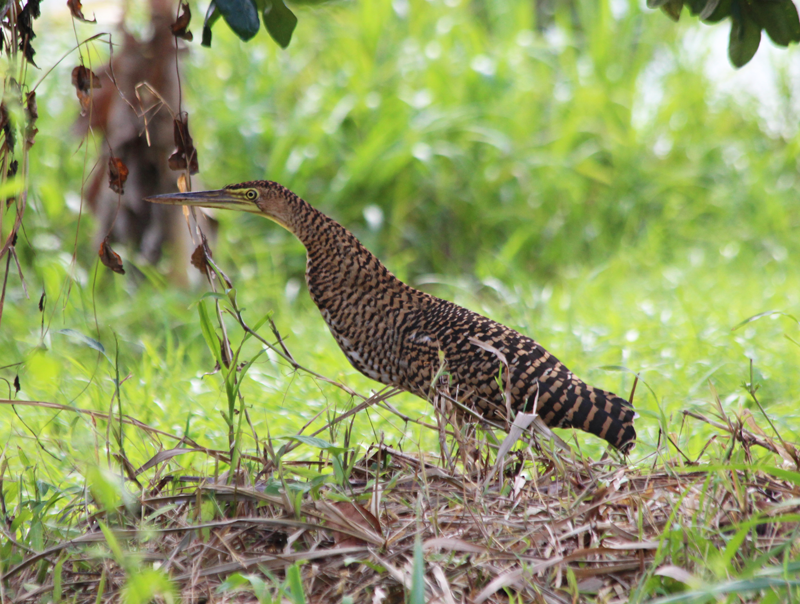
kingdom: Animalia
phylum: Chordata
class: Aves
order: Pelecaniformes
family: Ardeidae
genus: Tigrisoma
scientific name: Tigrisoma mexicanum
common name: Bare-throated tiger-heron
